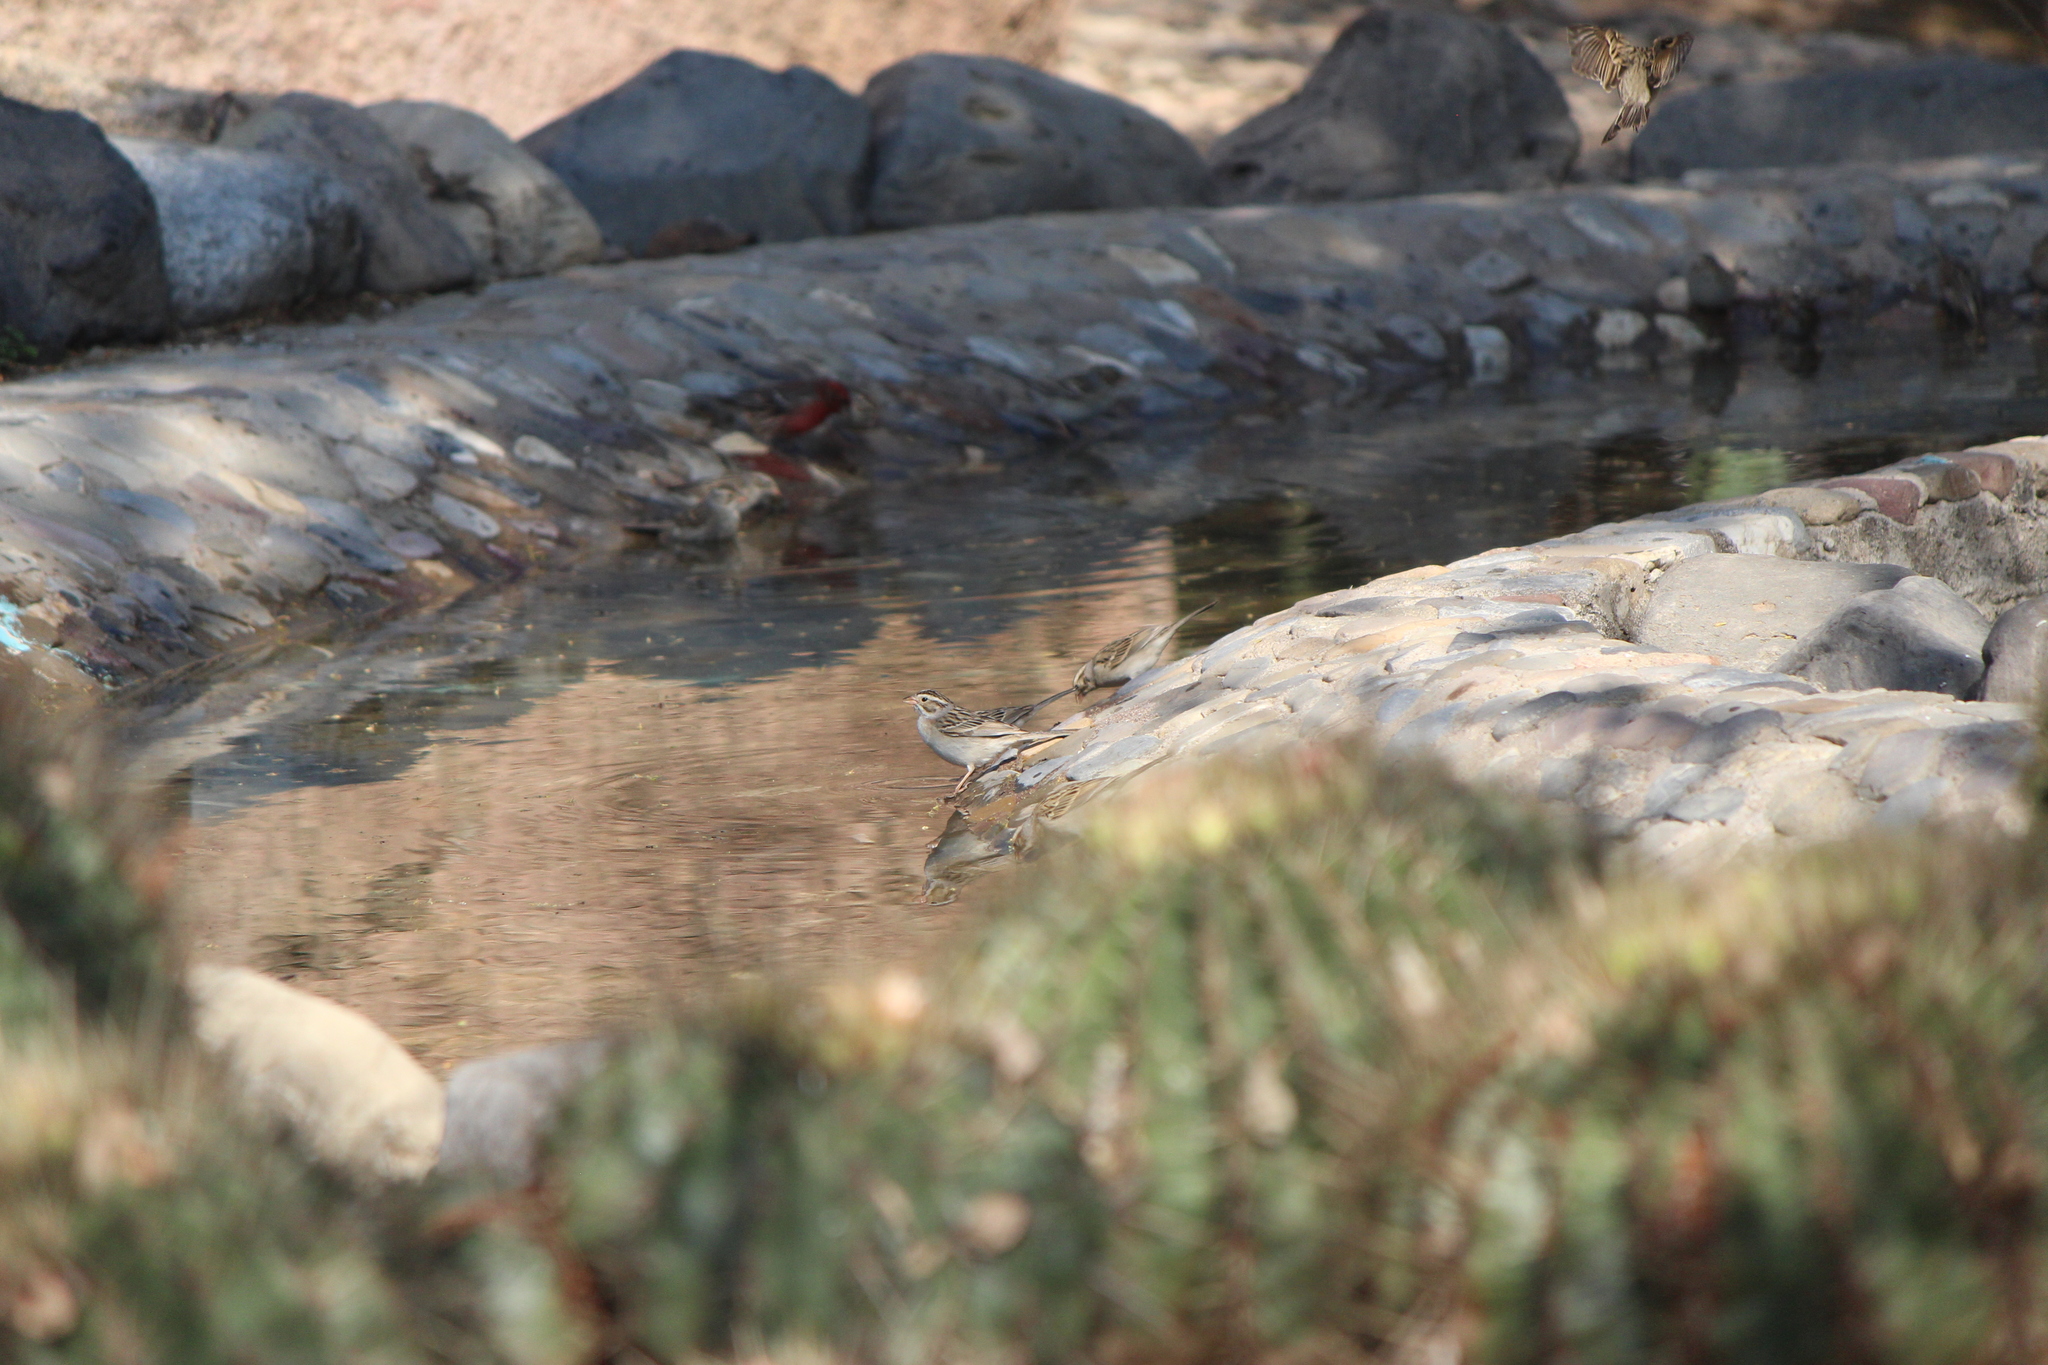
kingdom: Animalia
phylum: Chordata
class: Aves
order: Passeriformes
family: Passerellidae
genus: Spizella
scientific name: Spizella pallida
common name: Clay-colored sparrow
